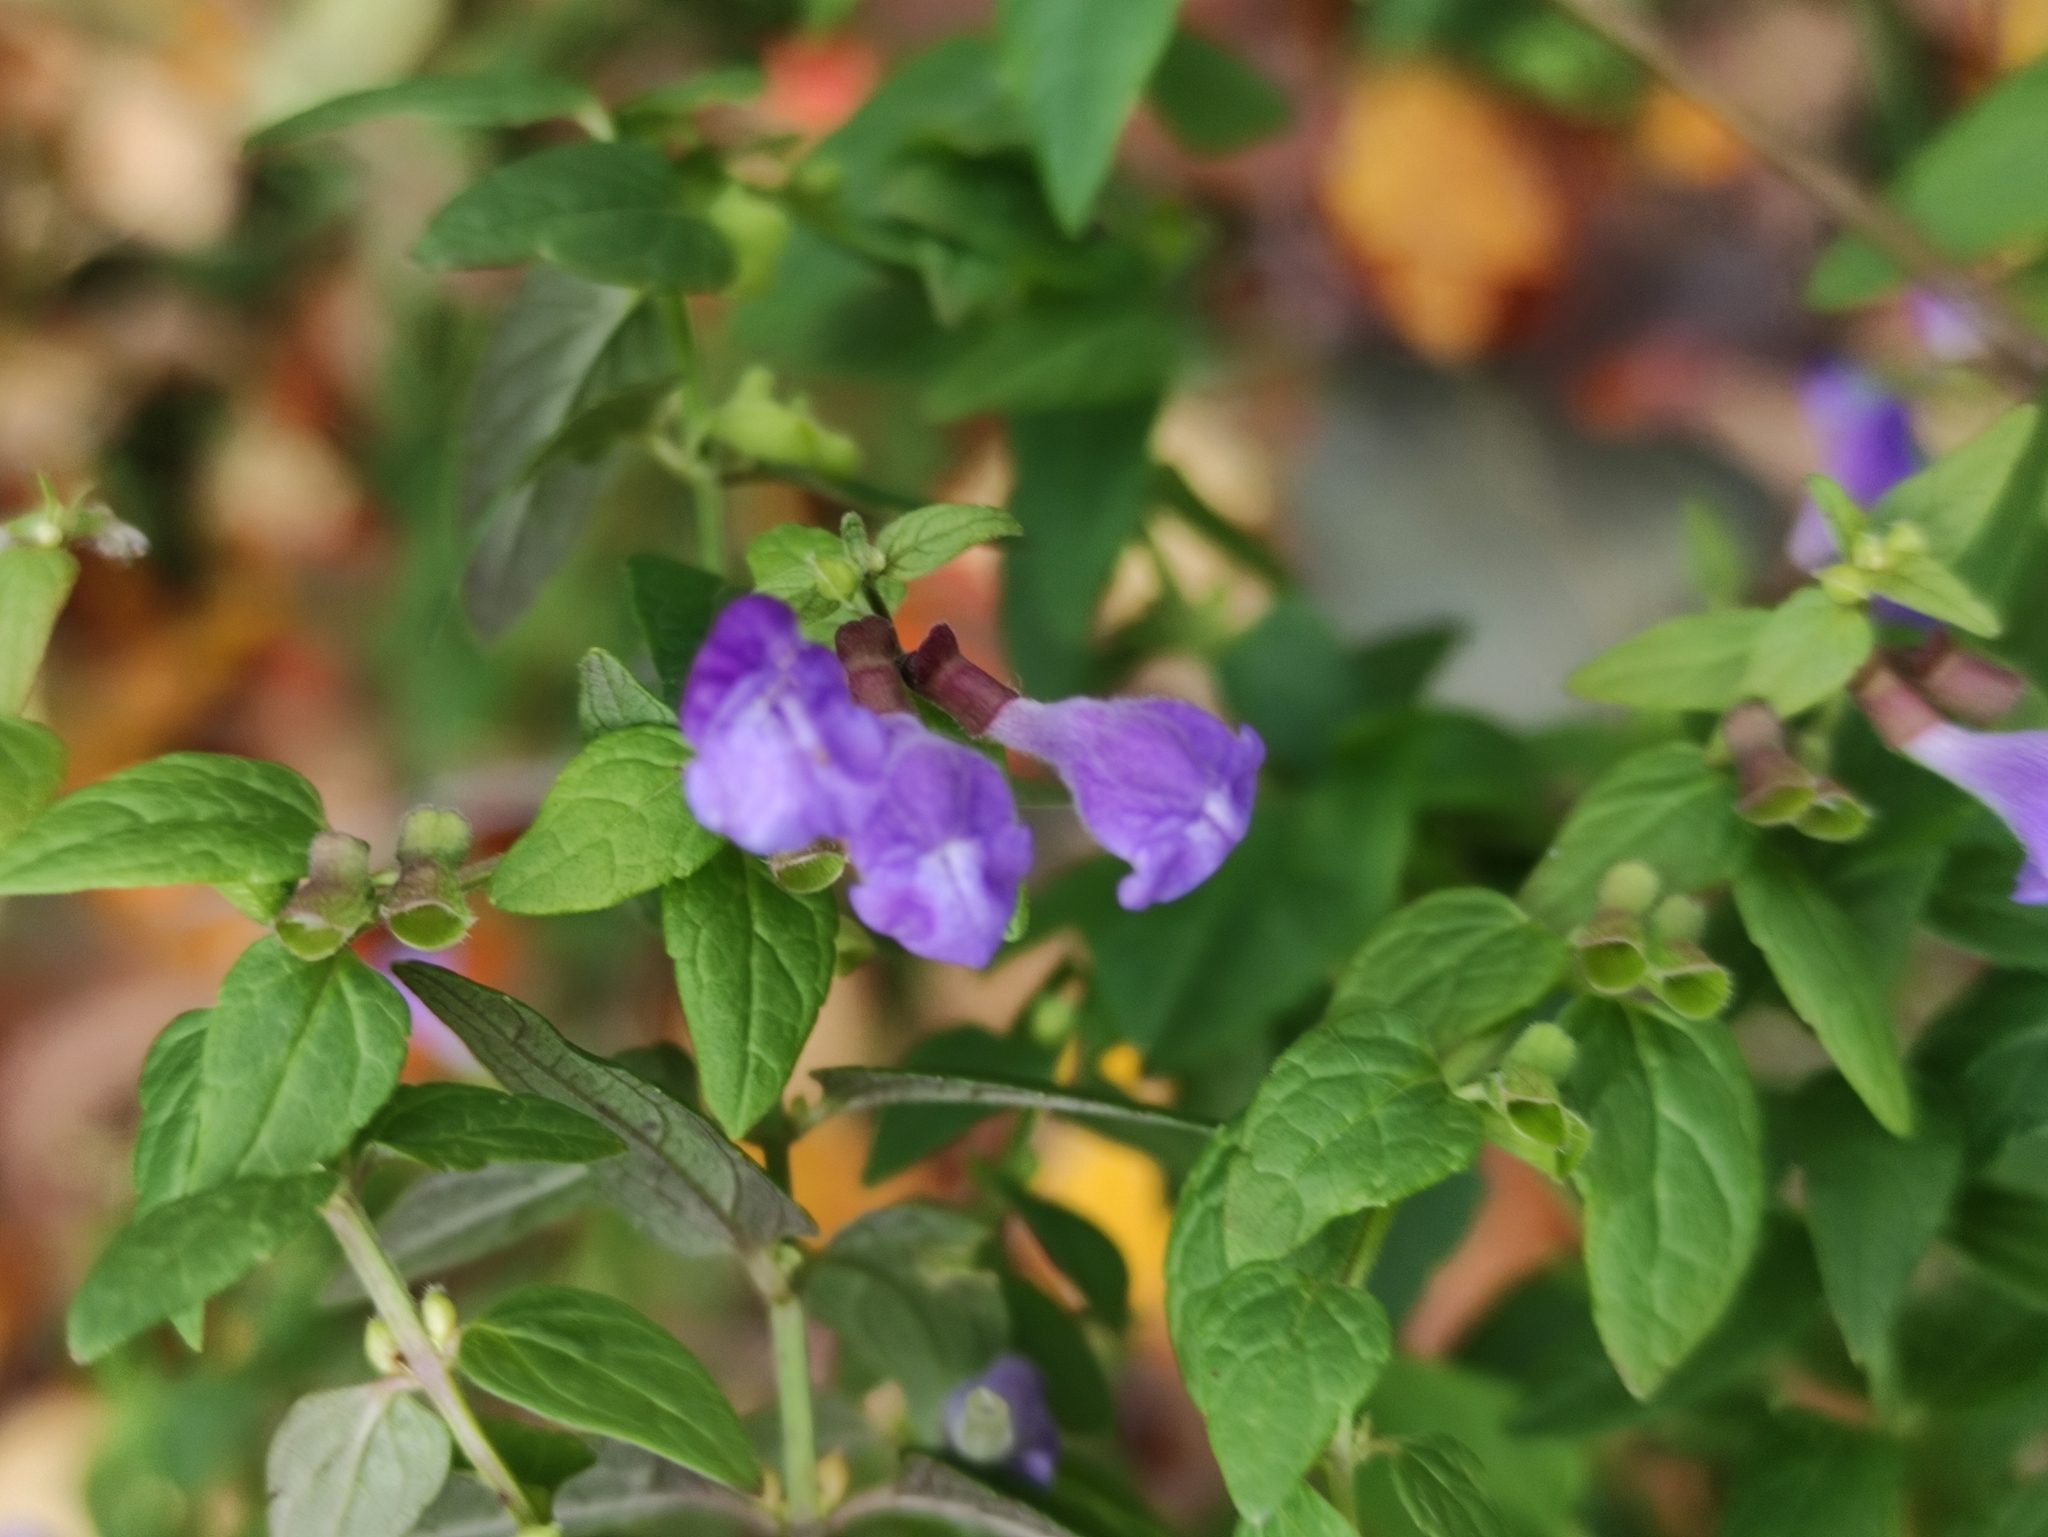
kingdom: Plantae
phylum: Tracheophyta
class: Magnoliopsida
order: Lamiales
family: Lamiaceae
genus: Scutellaria
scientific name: Scutellaria galericulata
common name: Skullcap
